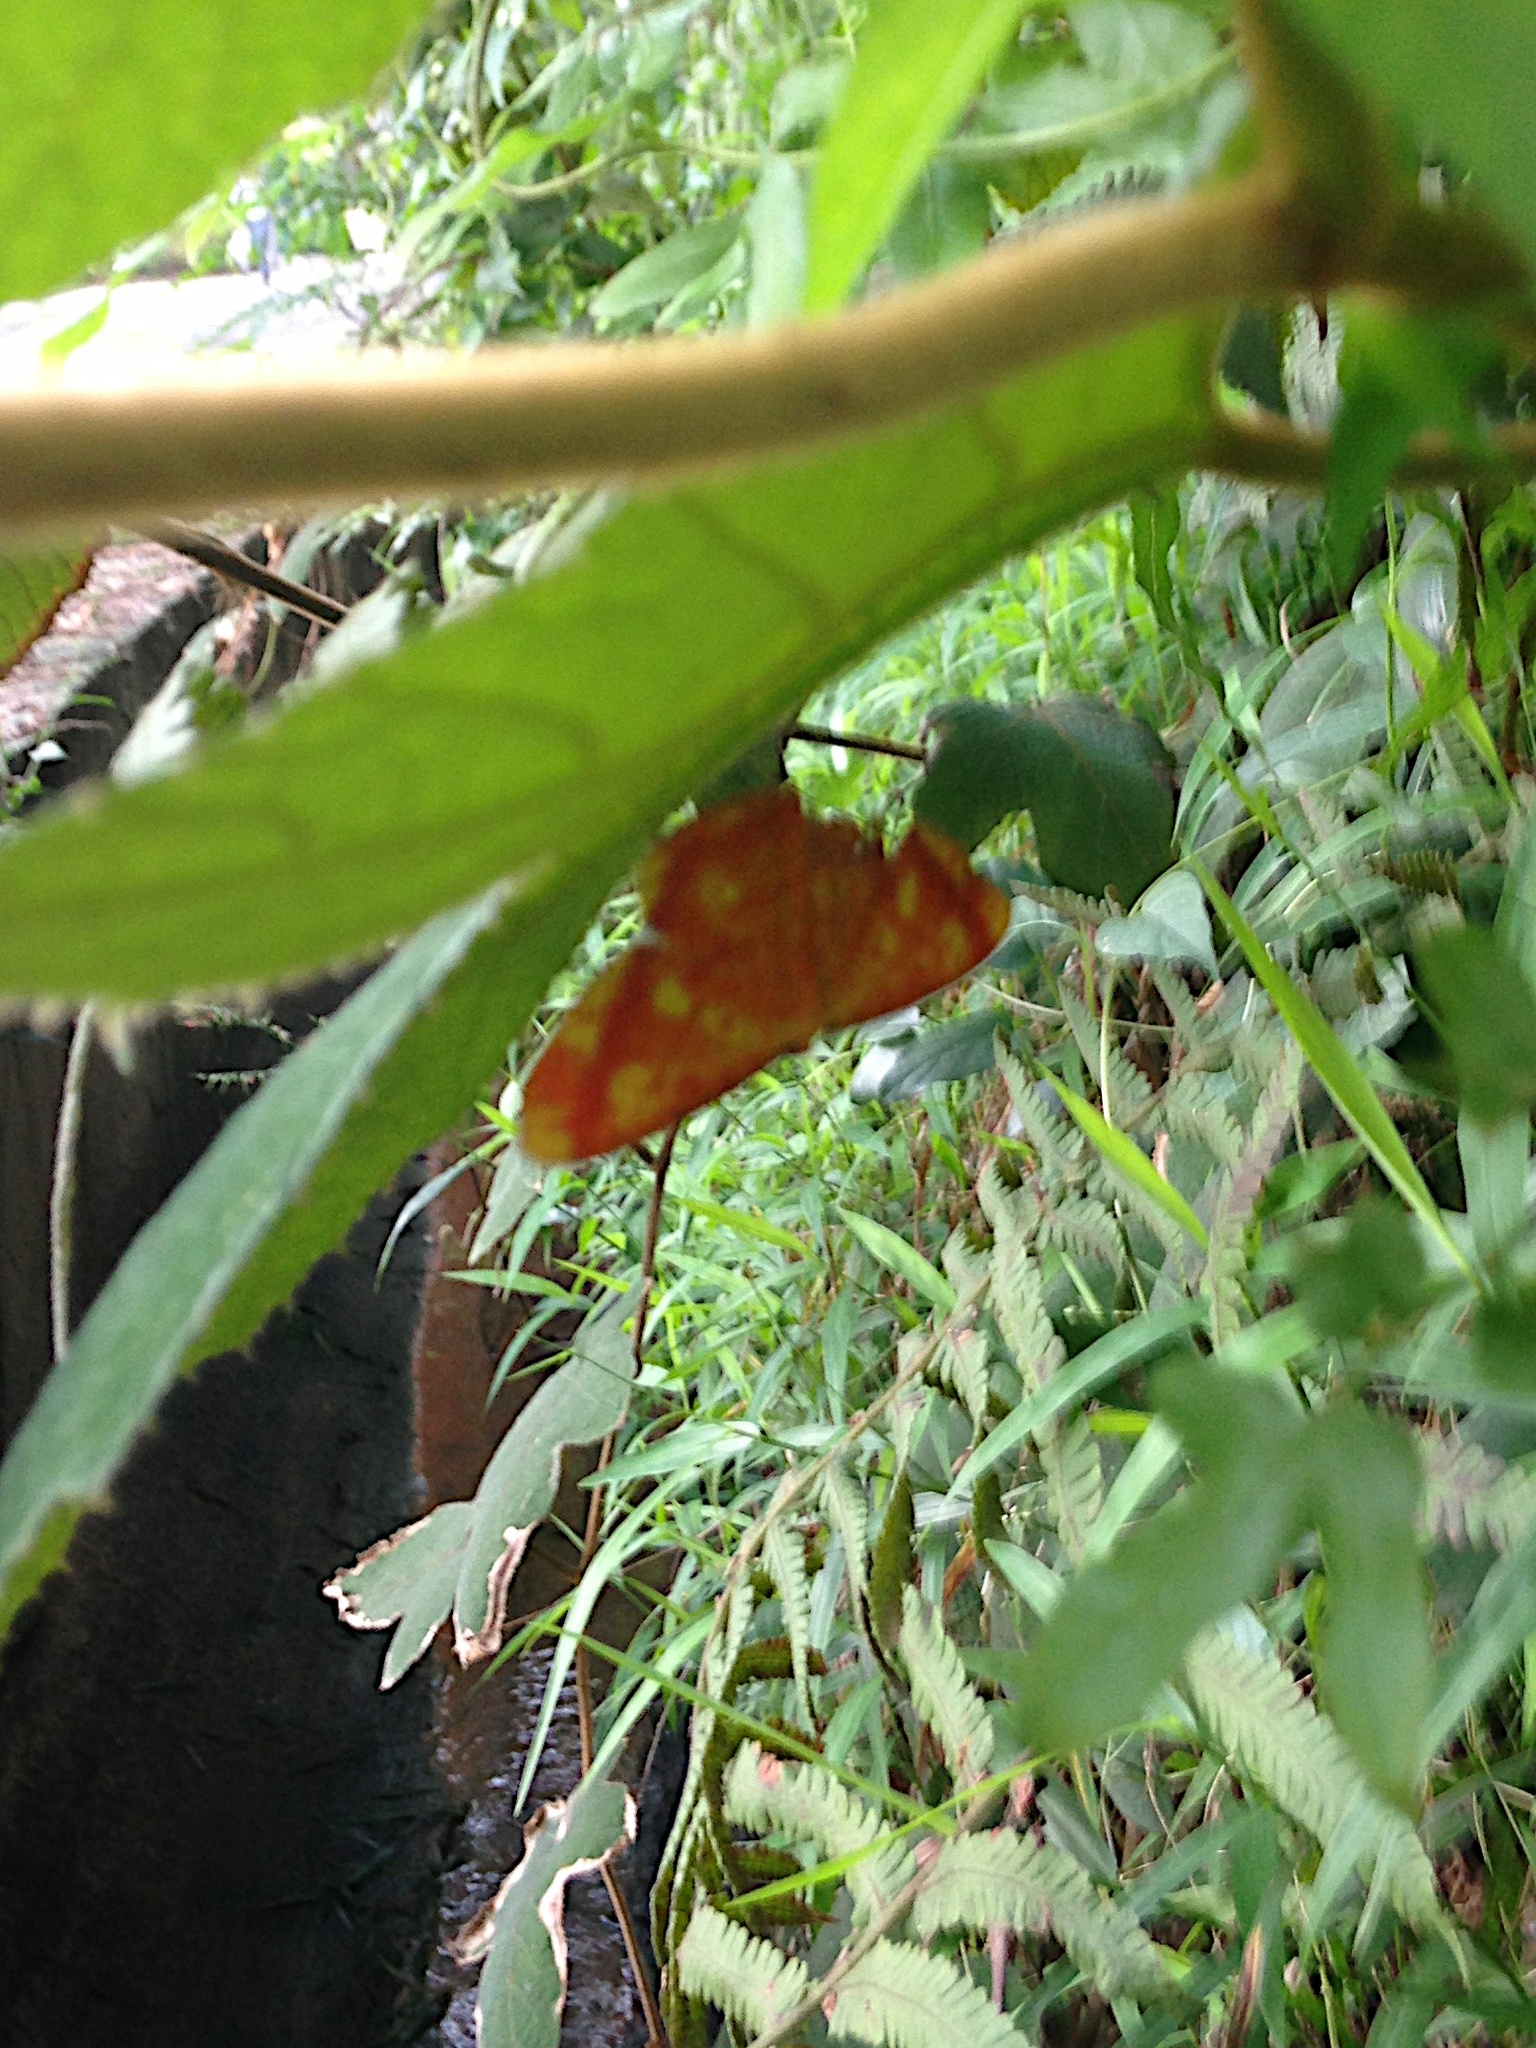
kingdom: Animalia
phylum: Arthropoda
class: Insecta
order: Lepidoptera
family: Geometridae
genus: Eumelea
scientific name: Eumelea biflavata
